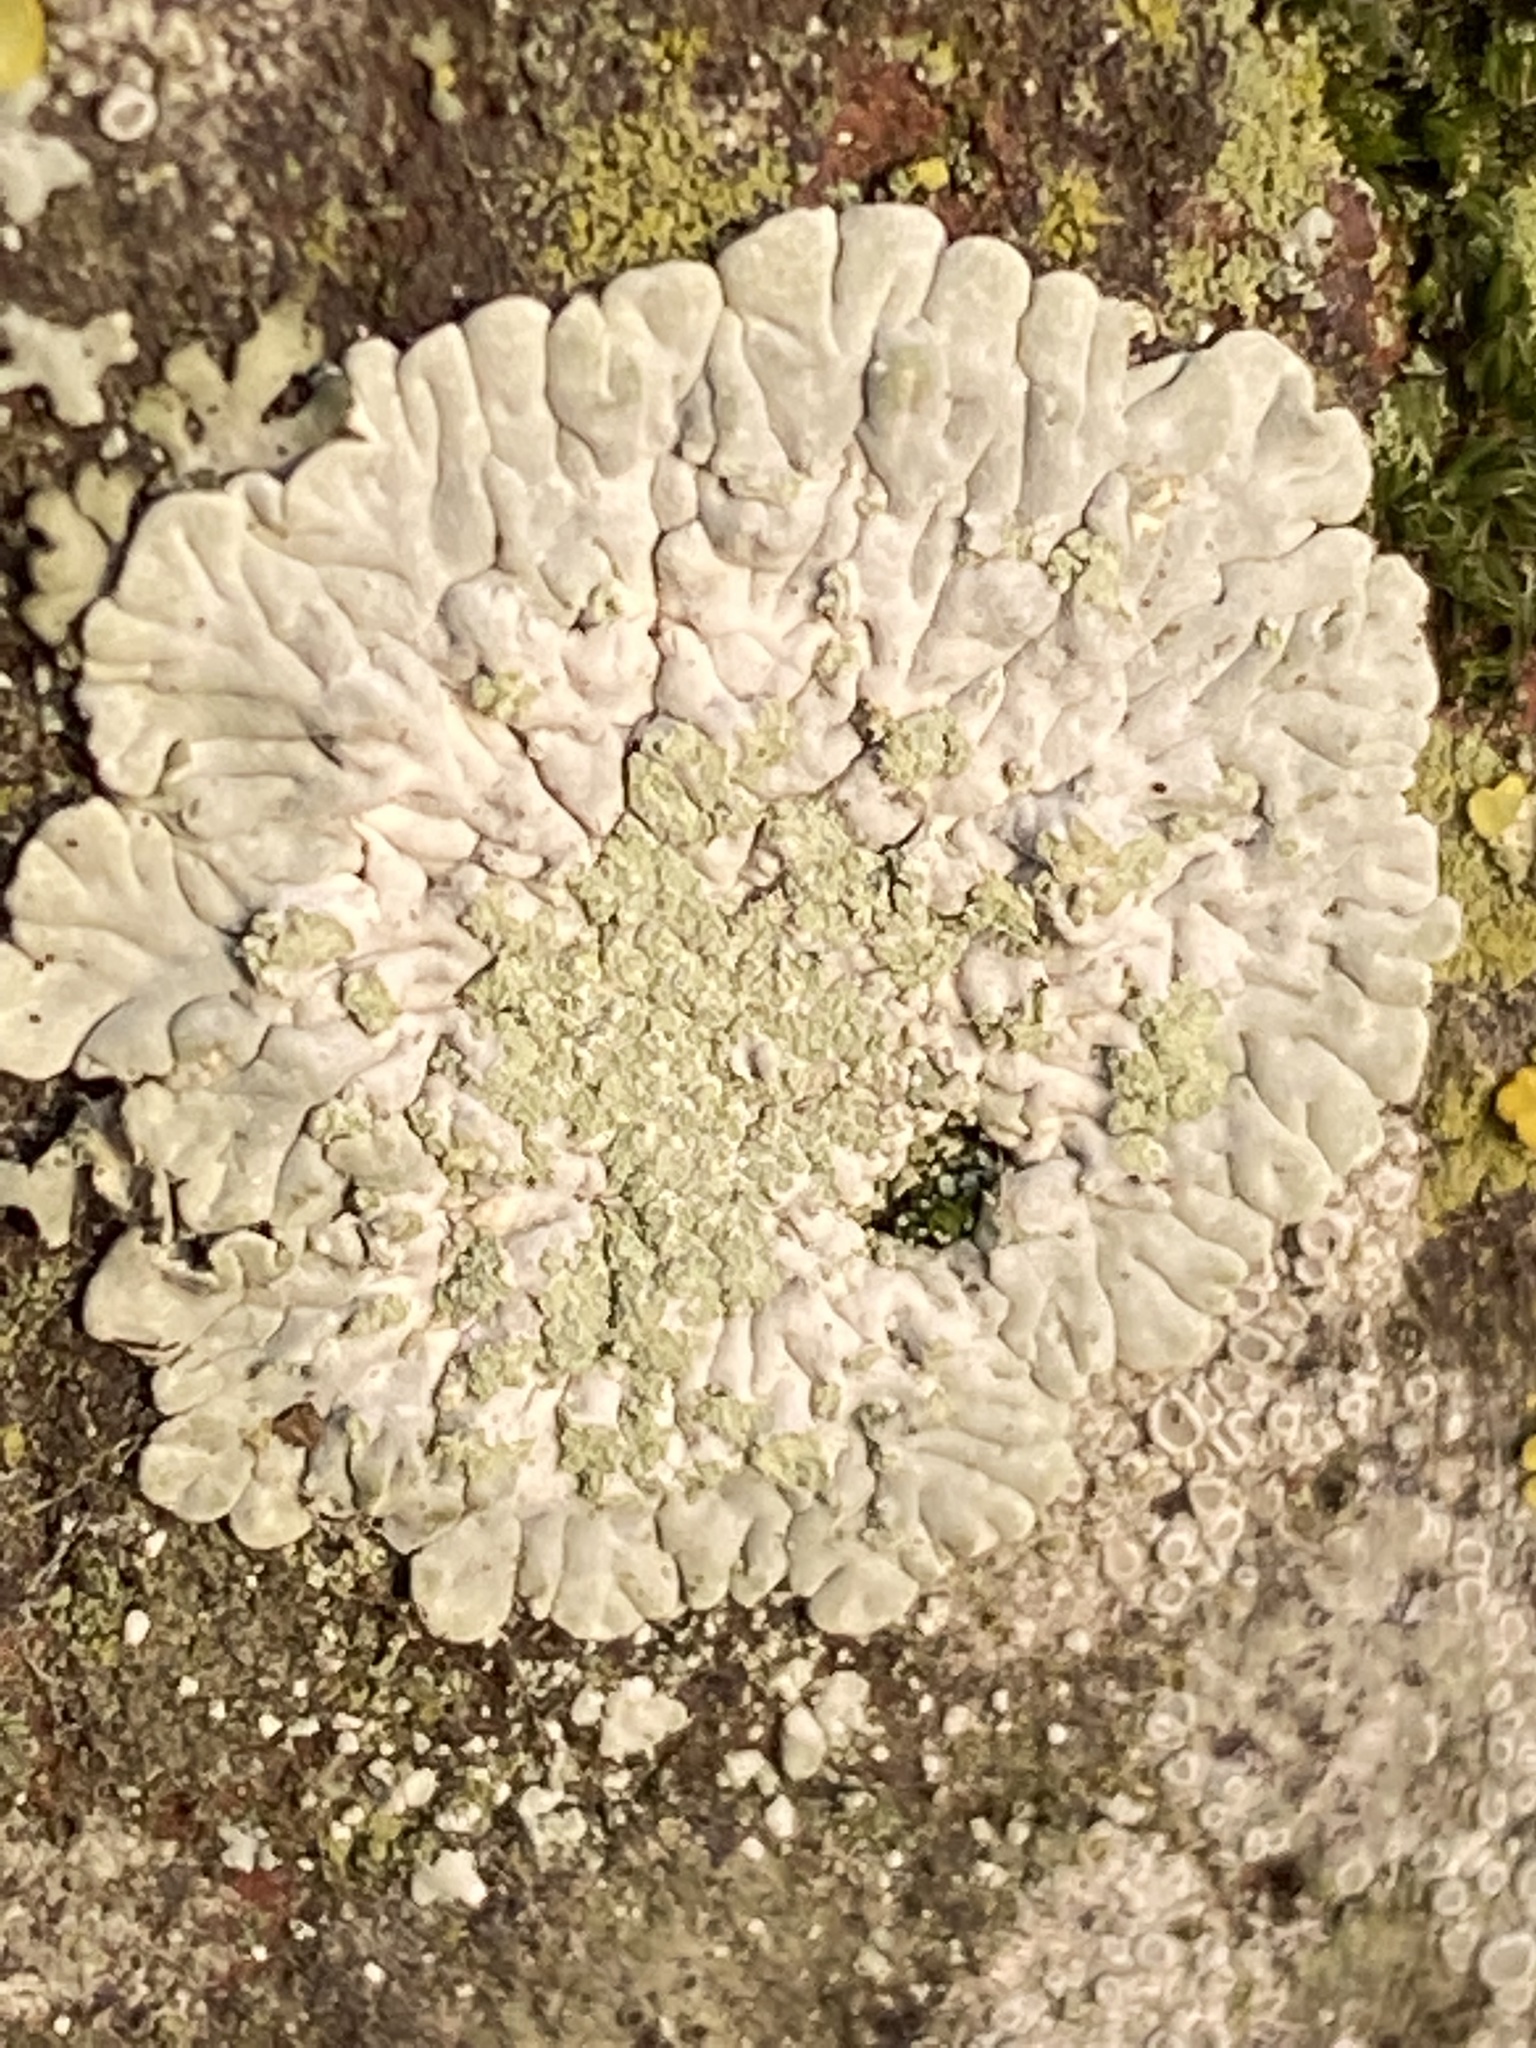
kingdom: Fungi
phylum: Ascomycota
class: Lecanoromycetes
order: Caliciales
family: Caliciaceae
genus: Diploicia
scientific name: Diploicia canescens
